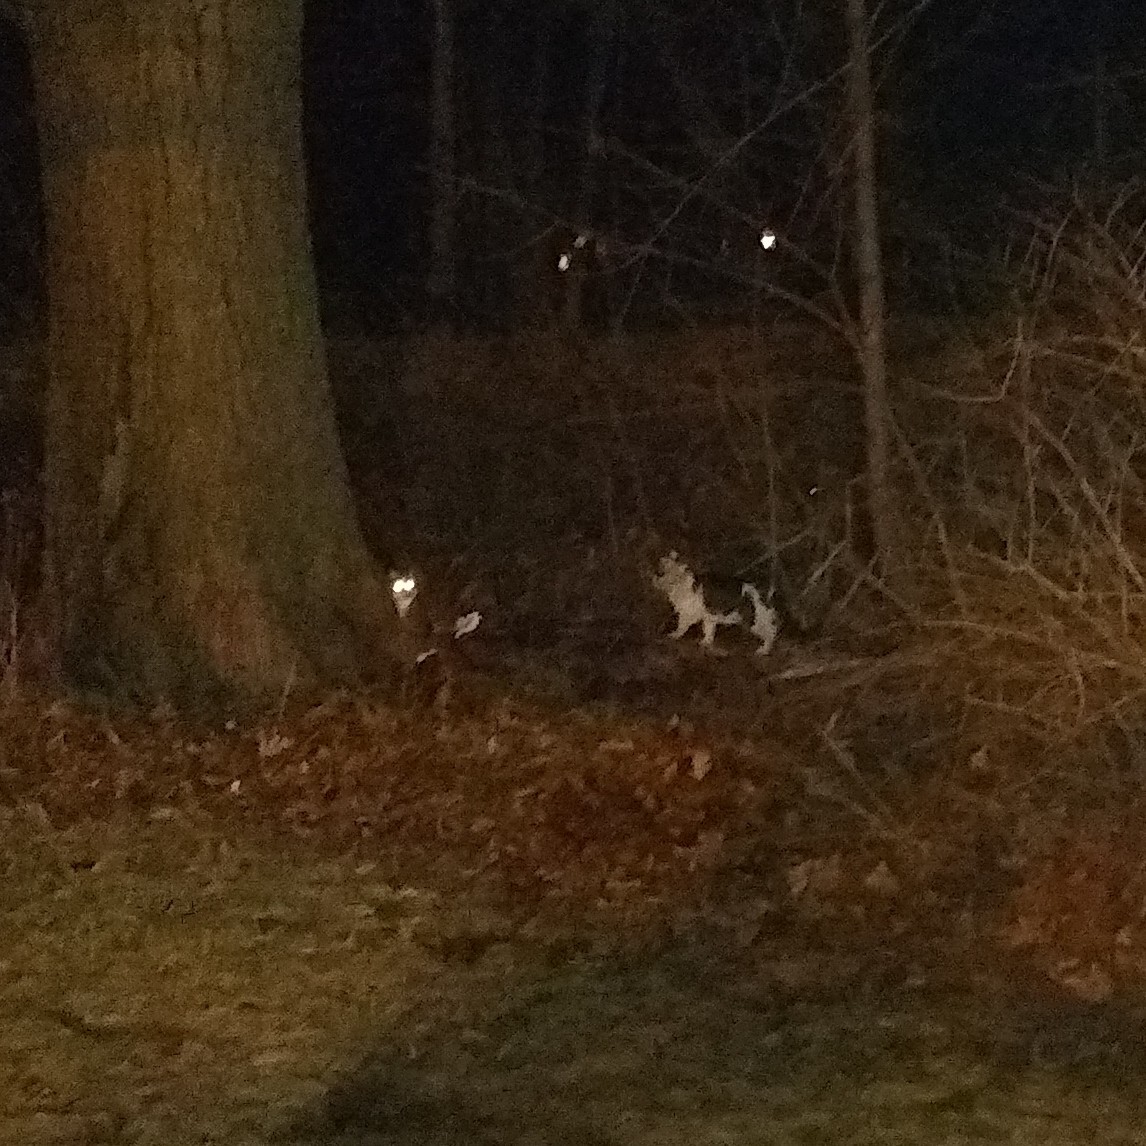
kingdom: Animalia
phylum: Chordata
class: Mammalia
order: Carnivora
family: Felidae
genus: Felis
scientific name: Felis catus
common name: Domestic cat
